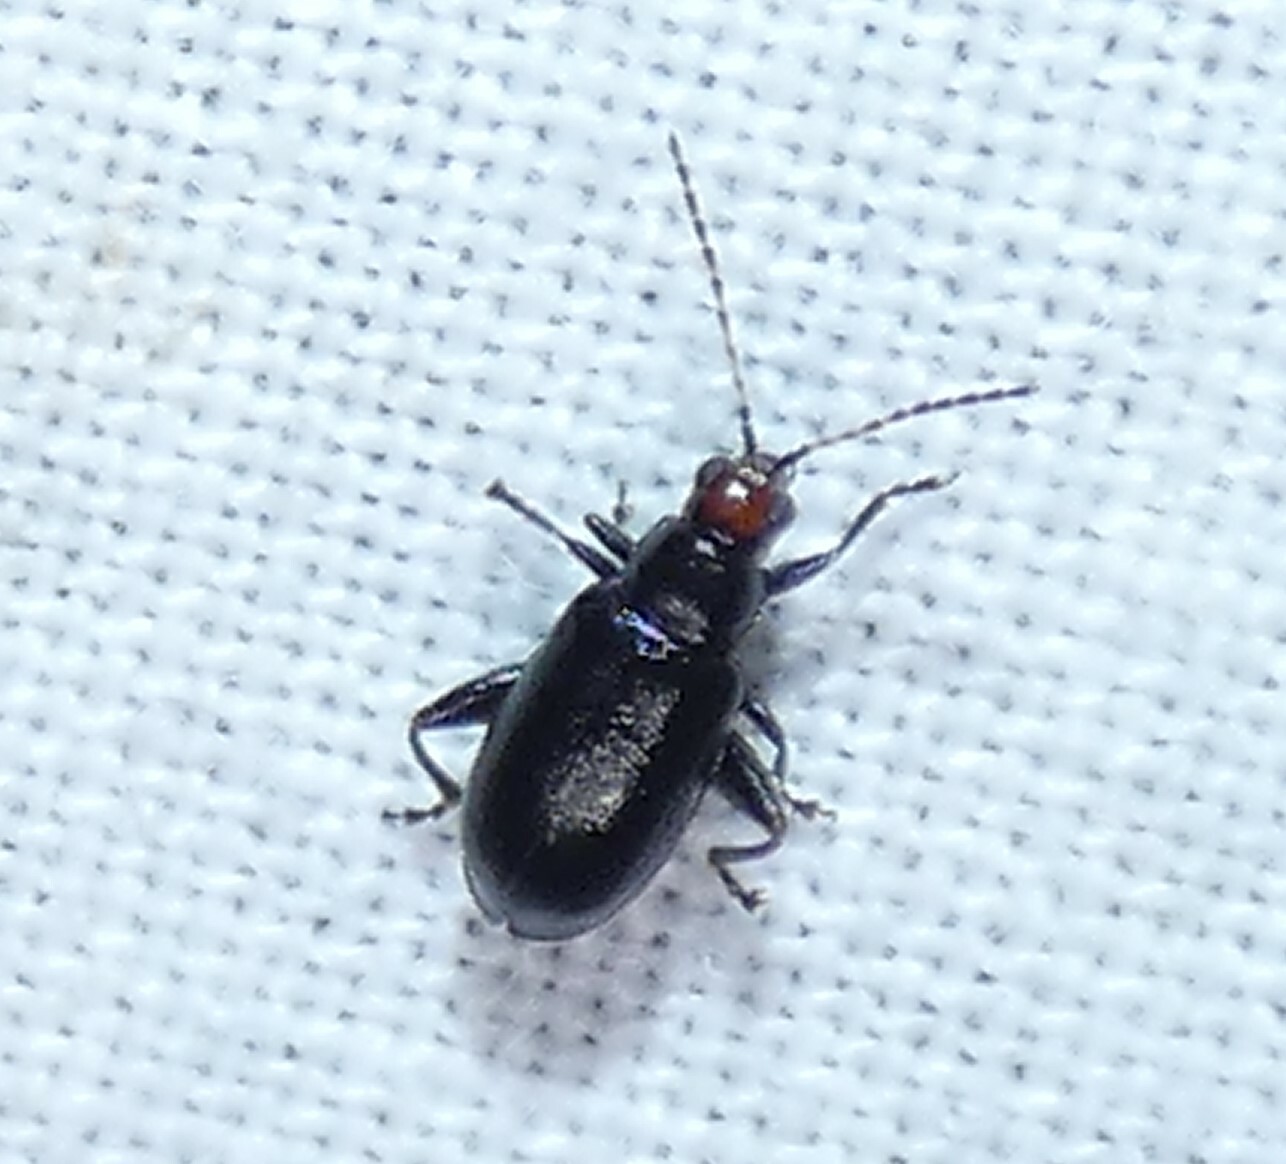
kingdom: Animalia
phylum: Arthropoda
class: Insecta
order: Coleoptera
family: Chrysomelidae
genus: Systena
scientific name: Systena frontalis
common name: Red-headed flea beetle
